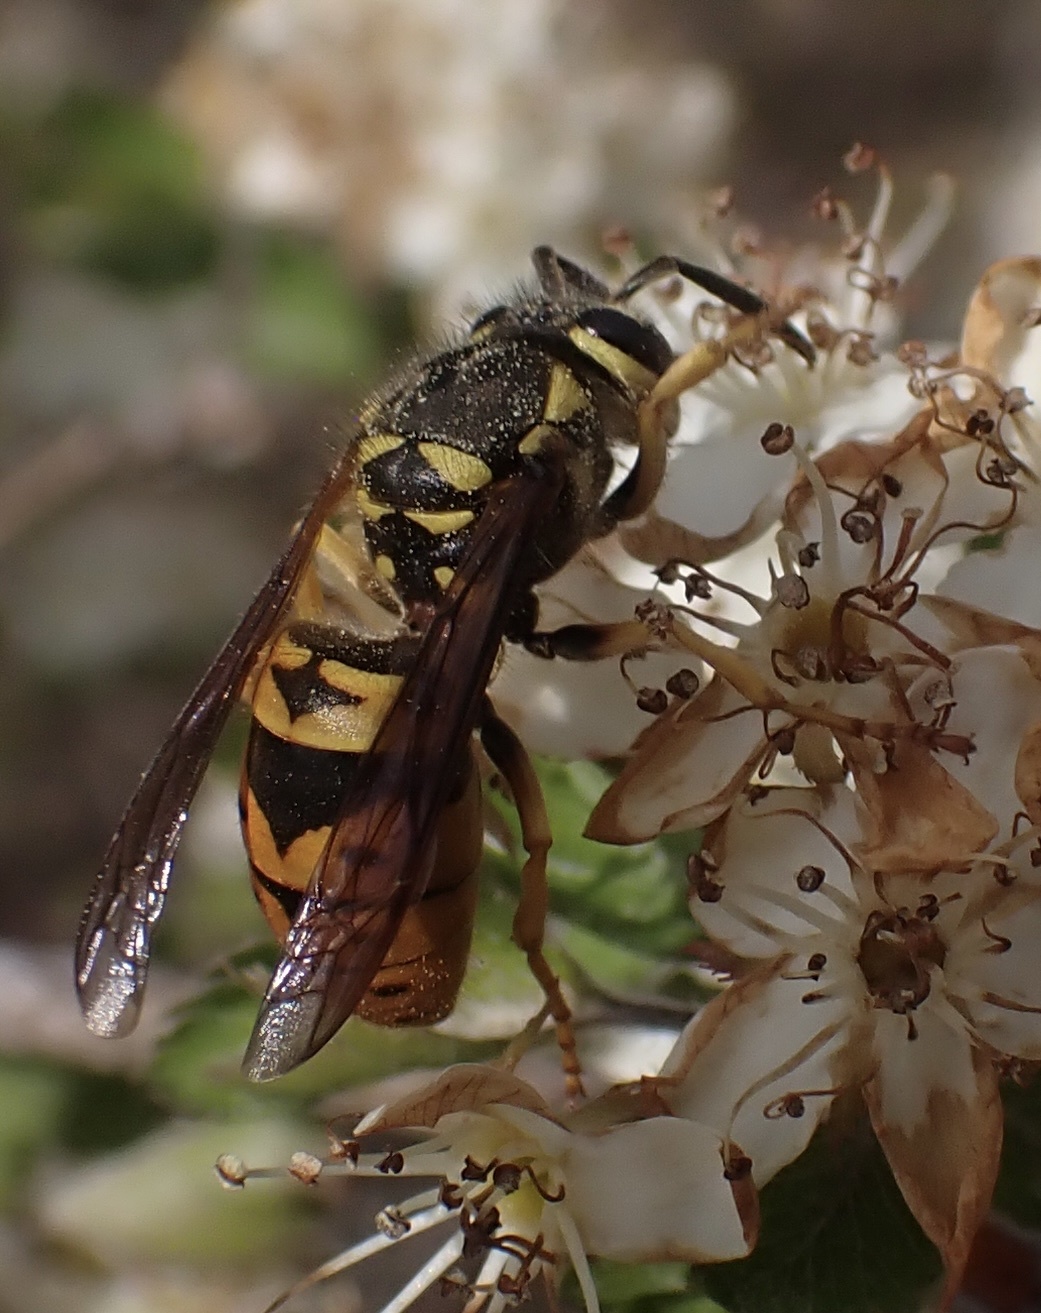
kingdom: Animalia
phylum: Arthropoda
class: Insecta
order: Hymenoptera
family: Vespidae
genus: Vespula
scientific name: Vespula maculifrons
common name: Eastern yellowjacket
